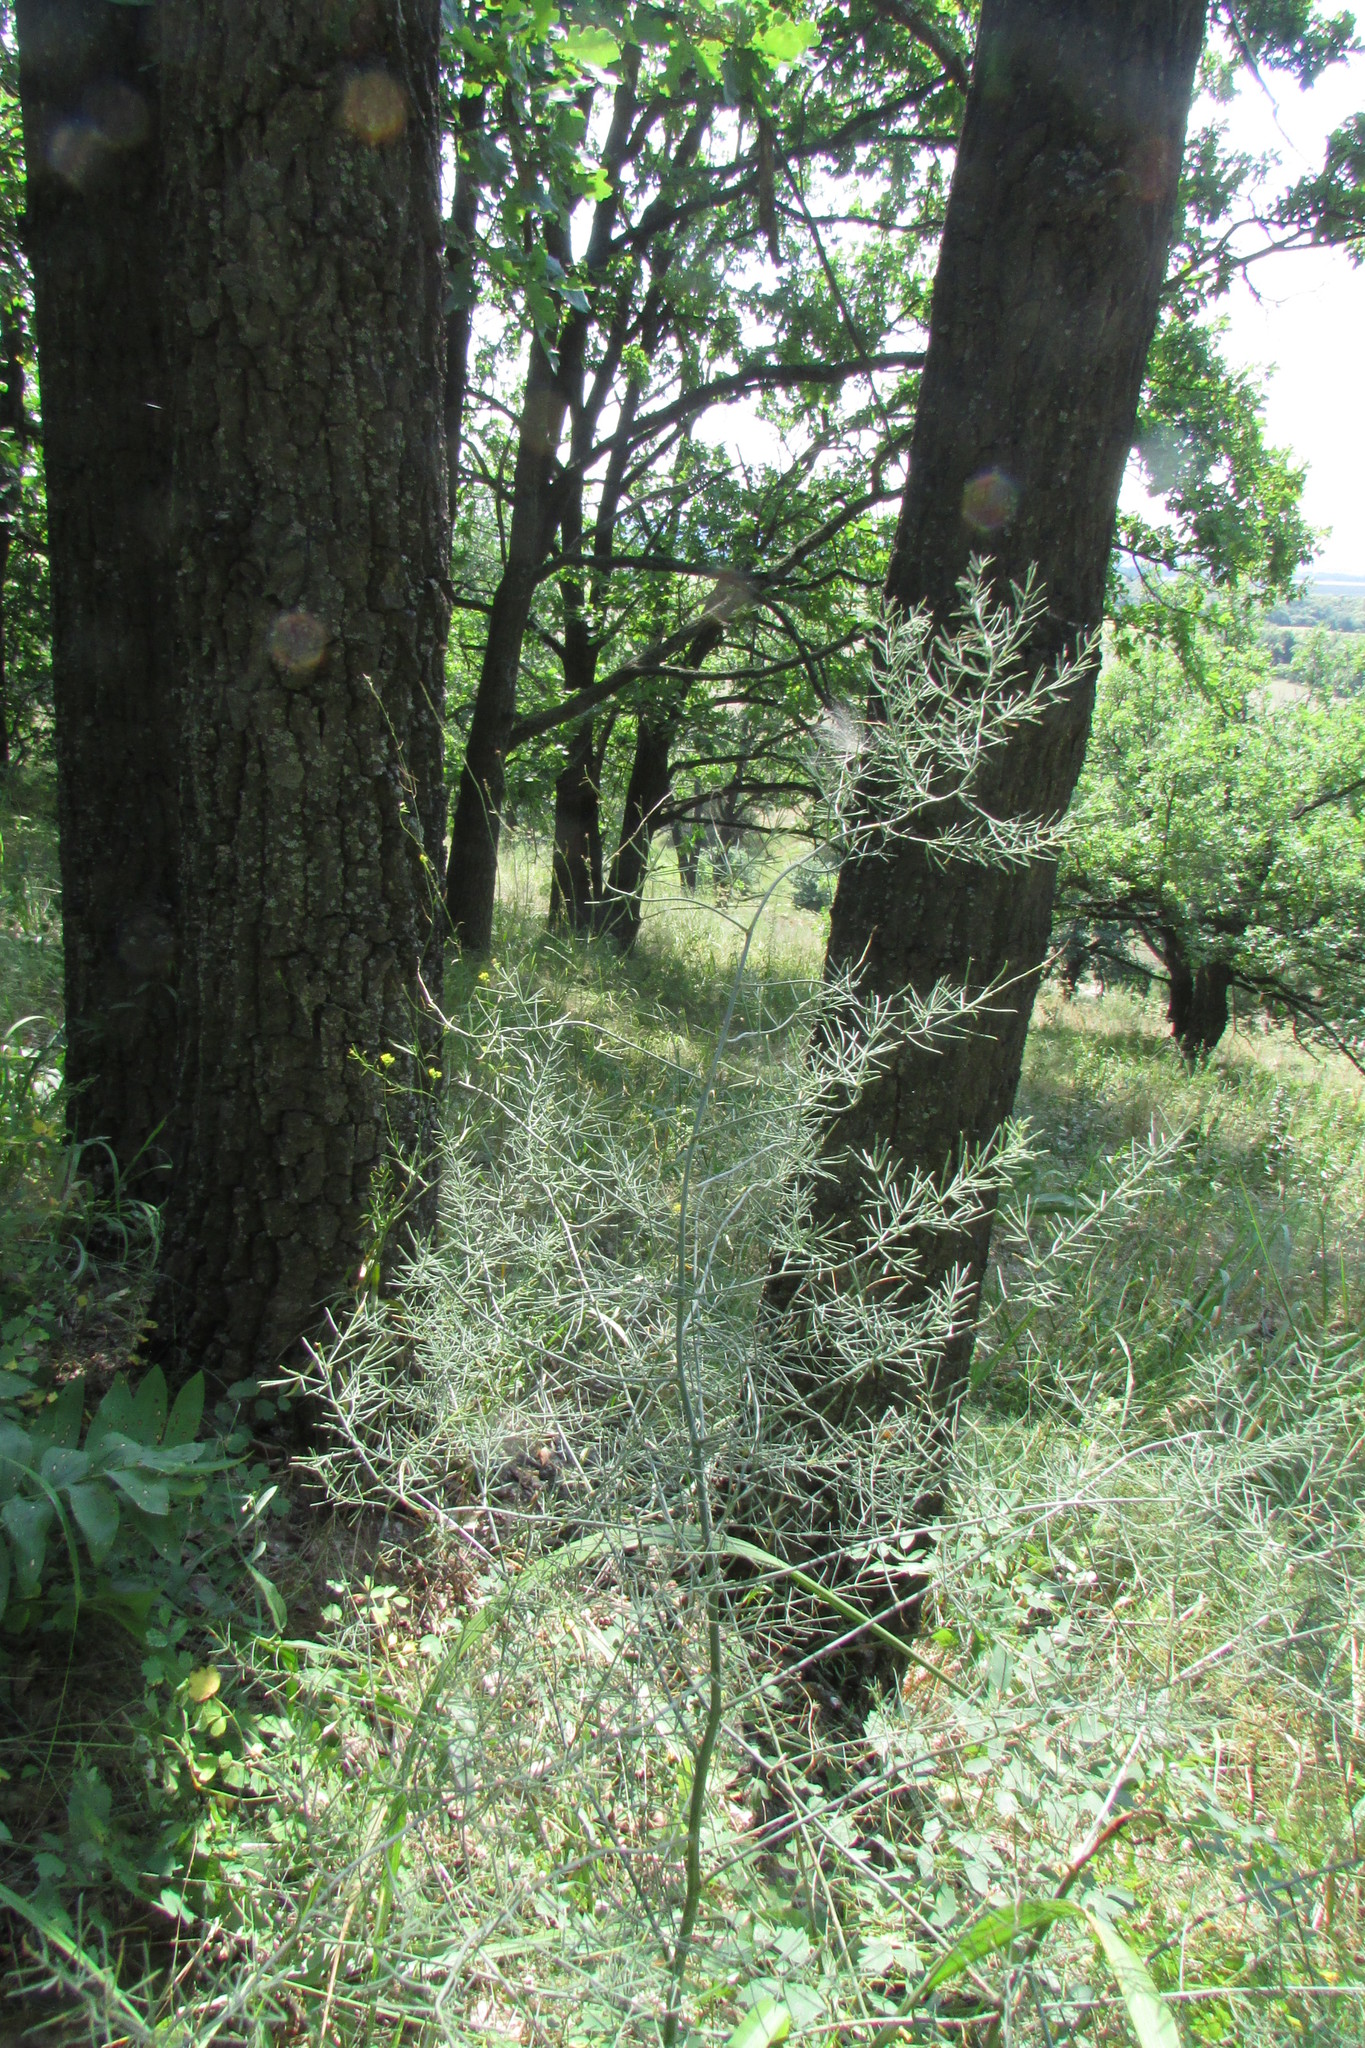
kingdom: Plantae
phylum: Tracheophyta
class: Liliopsida
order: Asparagales
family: Asparagaceae
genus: Asparagus
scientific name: Asparagus officinalis
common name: Garden asparagus
